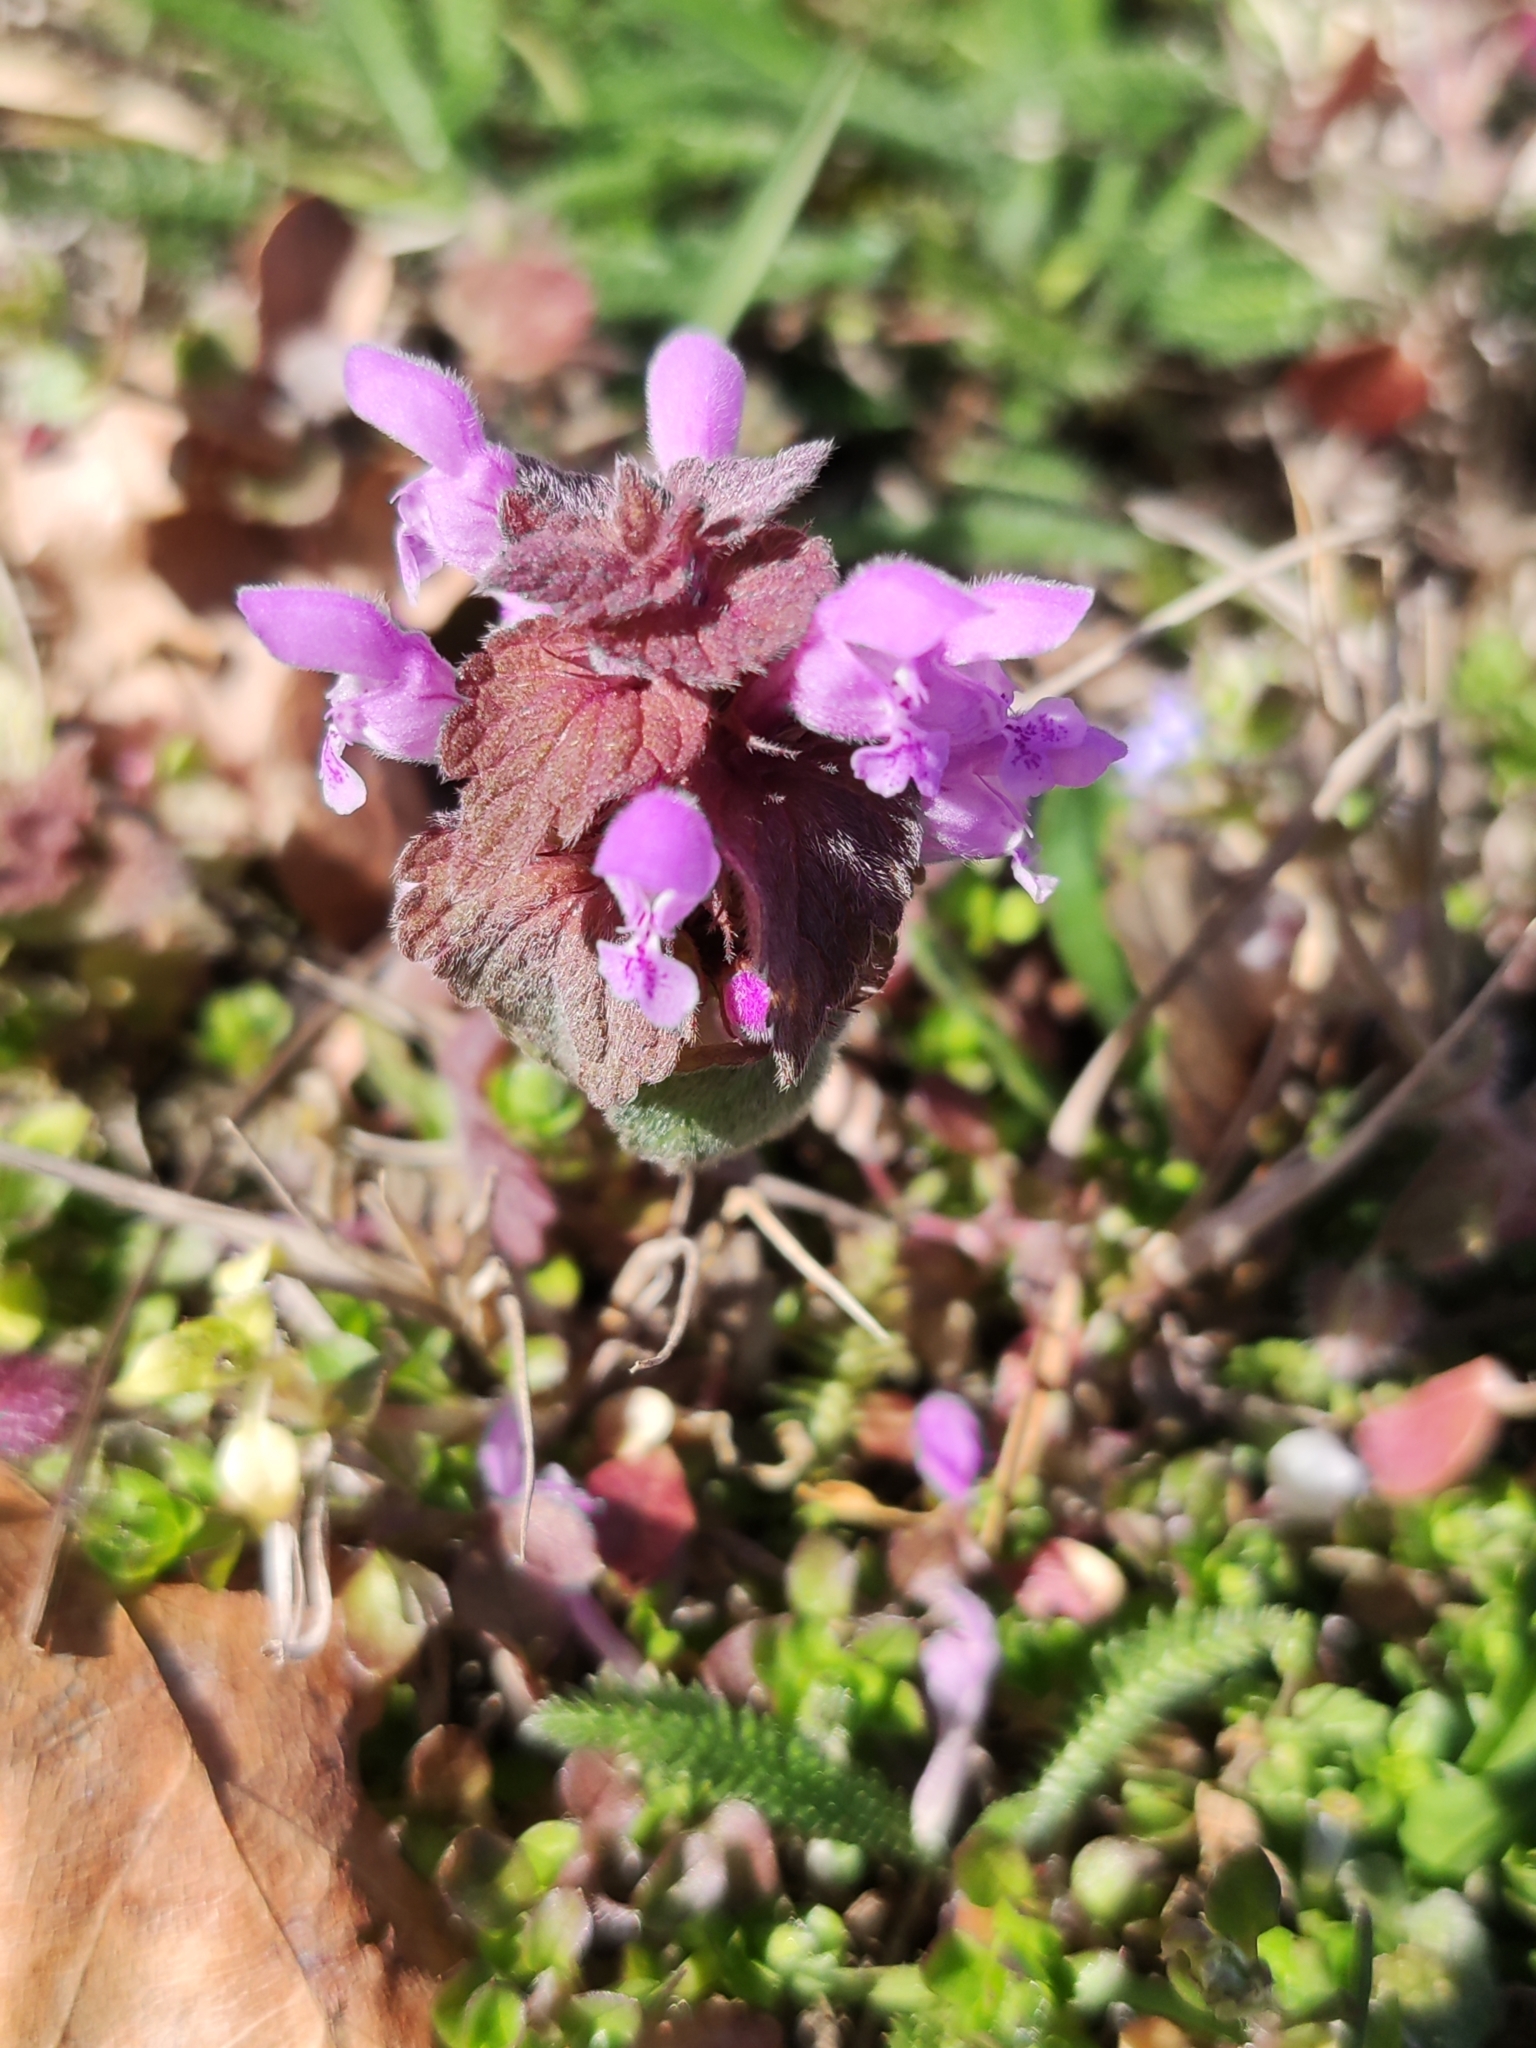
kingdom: Plantae
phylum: Tracheophyta
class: Magnoliopsida
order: Lamiales
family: Lamiaceae
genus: Lamium
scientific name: Lamium purpureum
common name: Red dead-nettle
